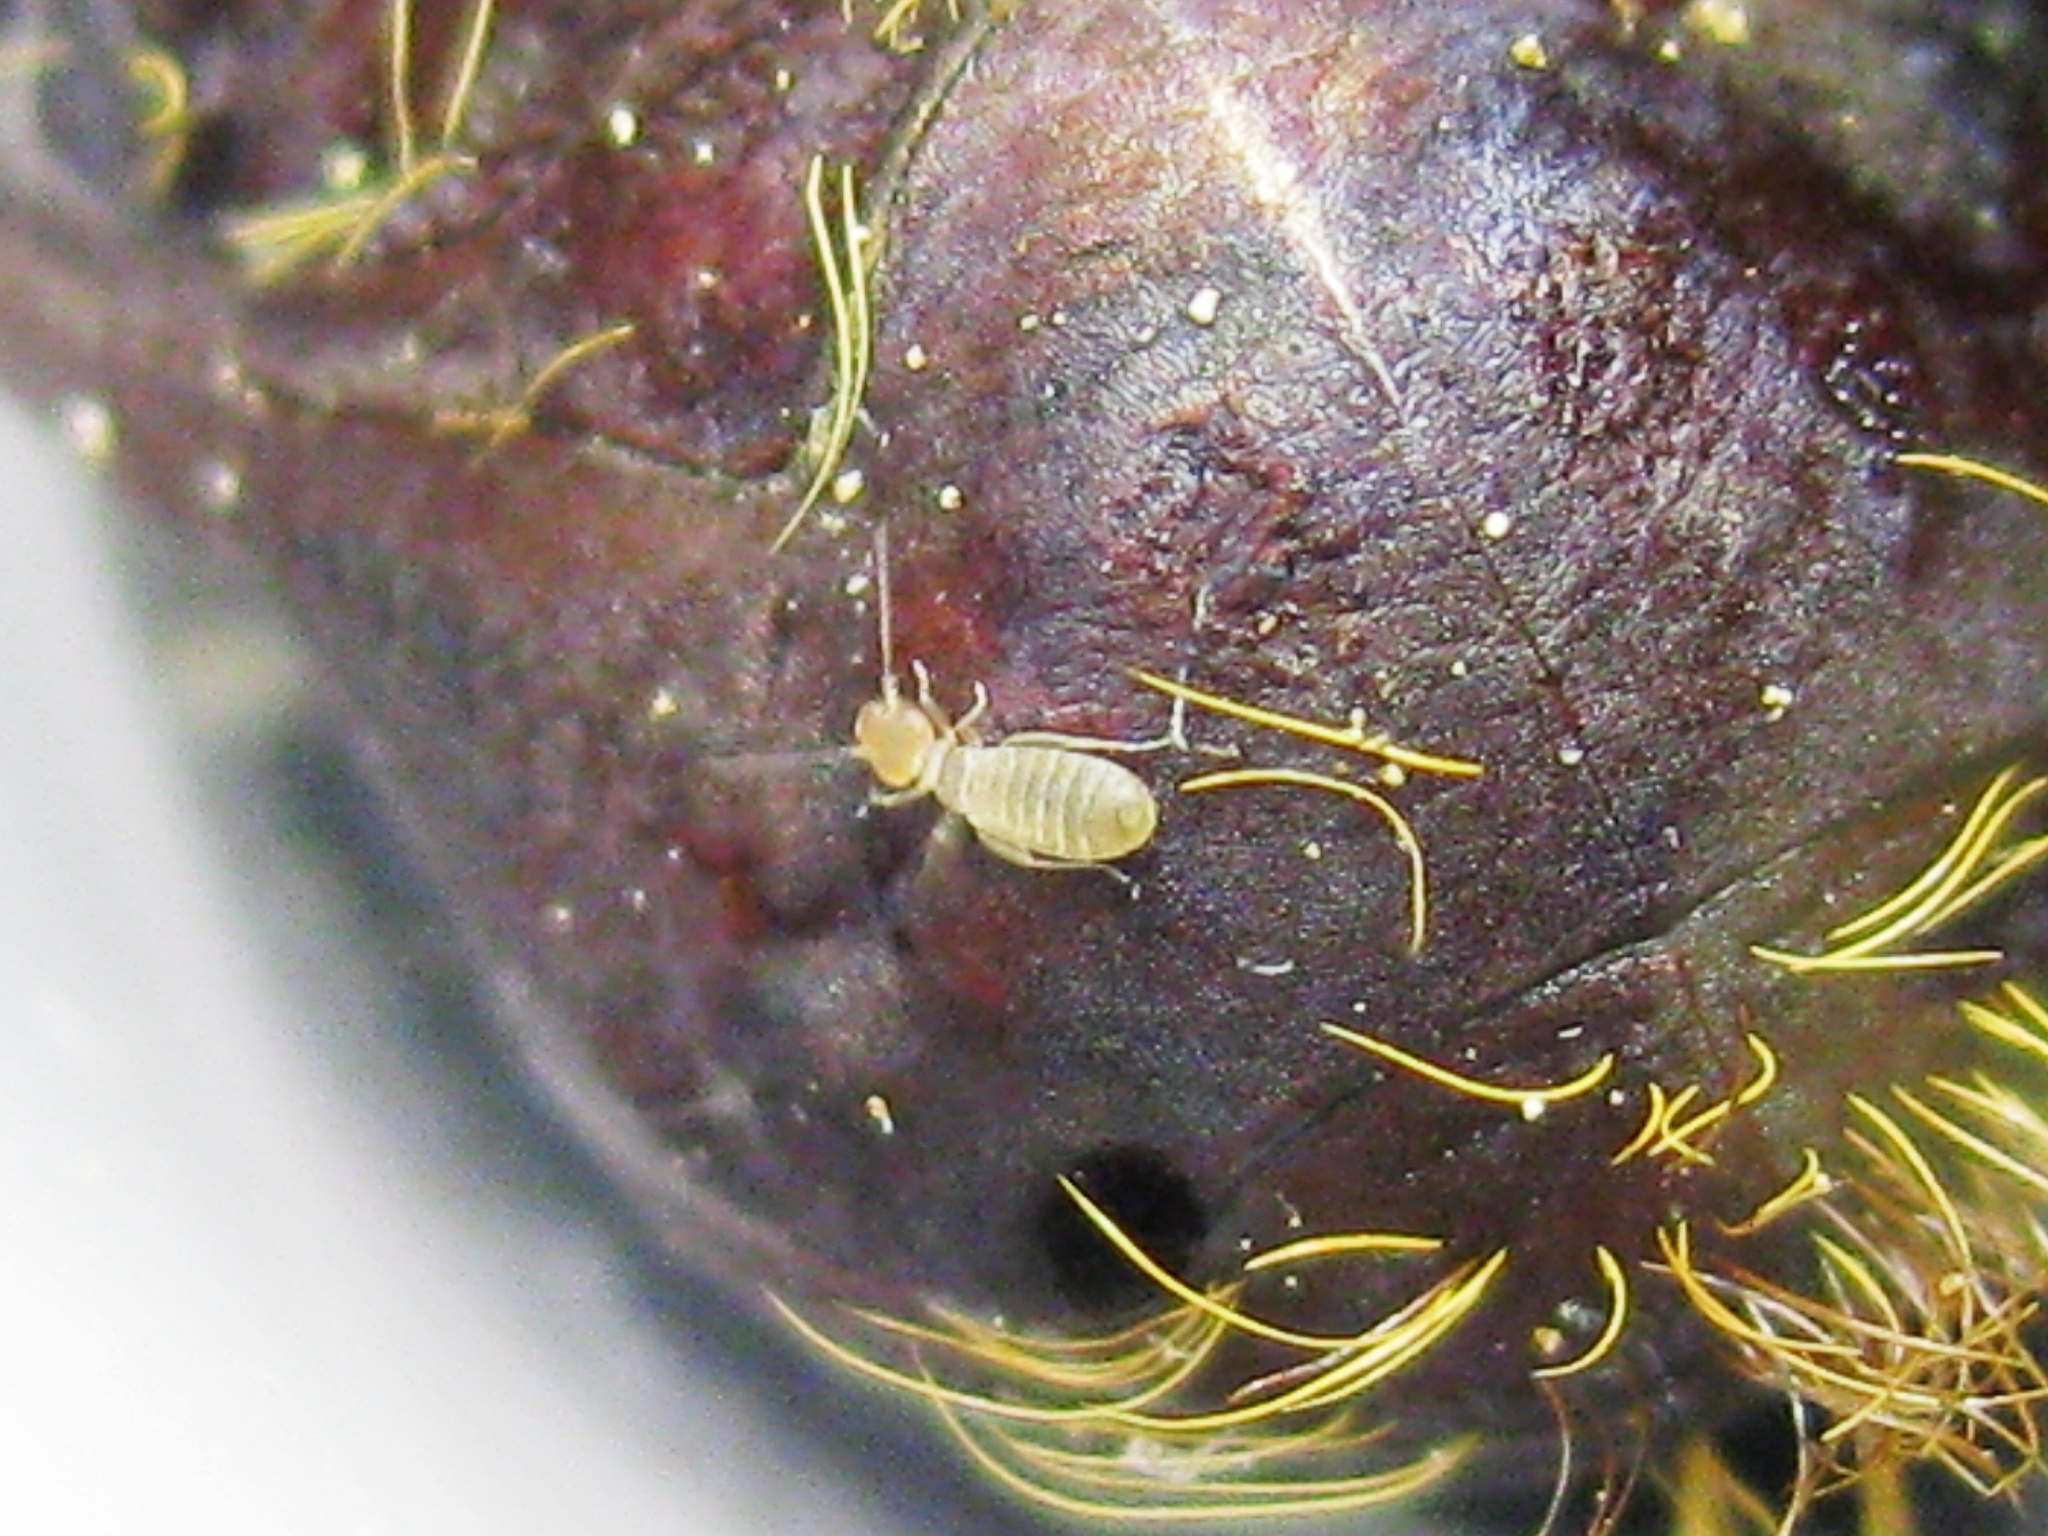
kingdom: Animalia
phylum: Arthropoda
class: Insecta
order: Psocodea
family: Liposcelididae
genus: Liposcelis
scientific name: Liposcelis
